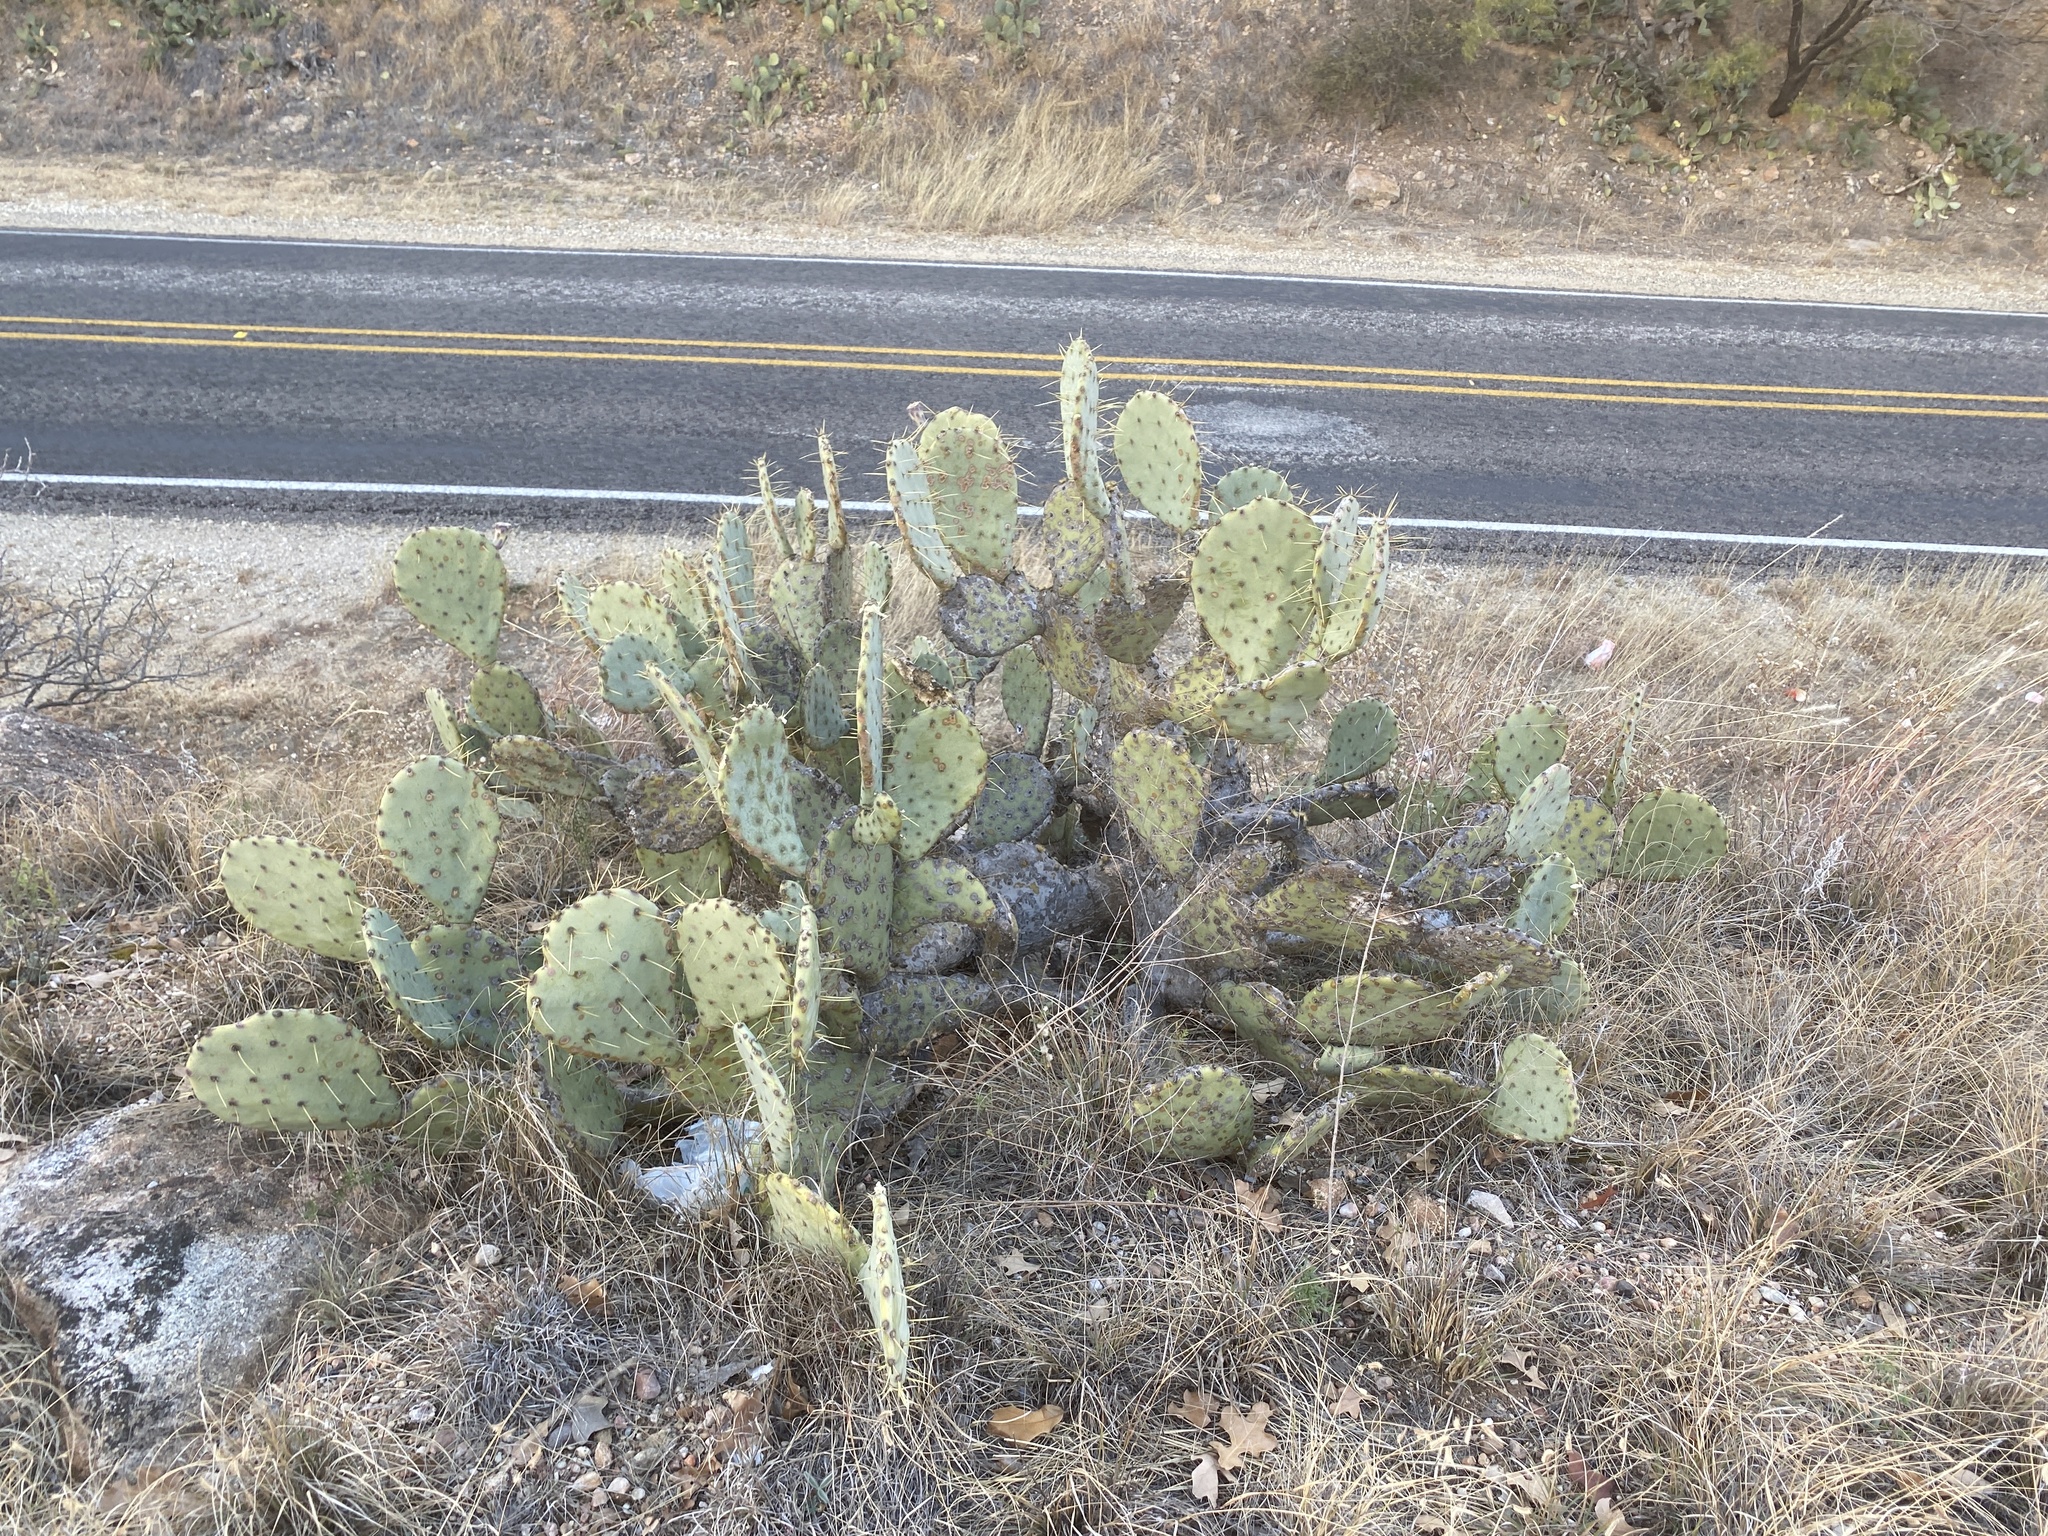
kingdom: Plantae
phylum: Tracheophyta
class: Magnoliopsida
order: Caryophyllales
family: Cactaceae
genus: Opuntia
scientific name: Opuntia engelmannii
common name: Cactus-apple
